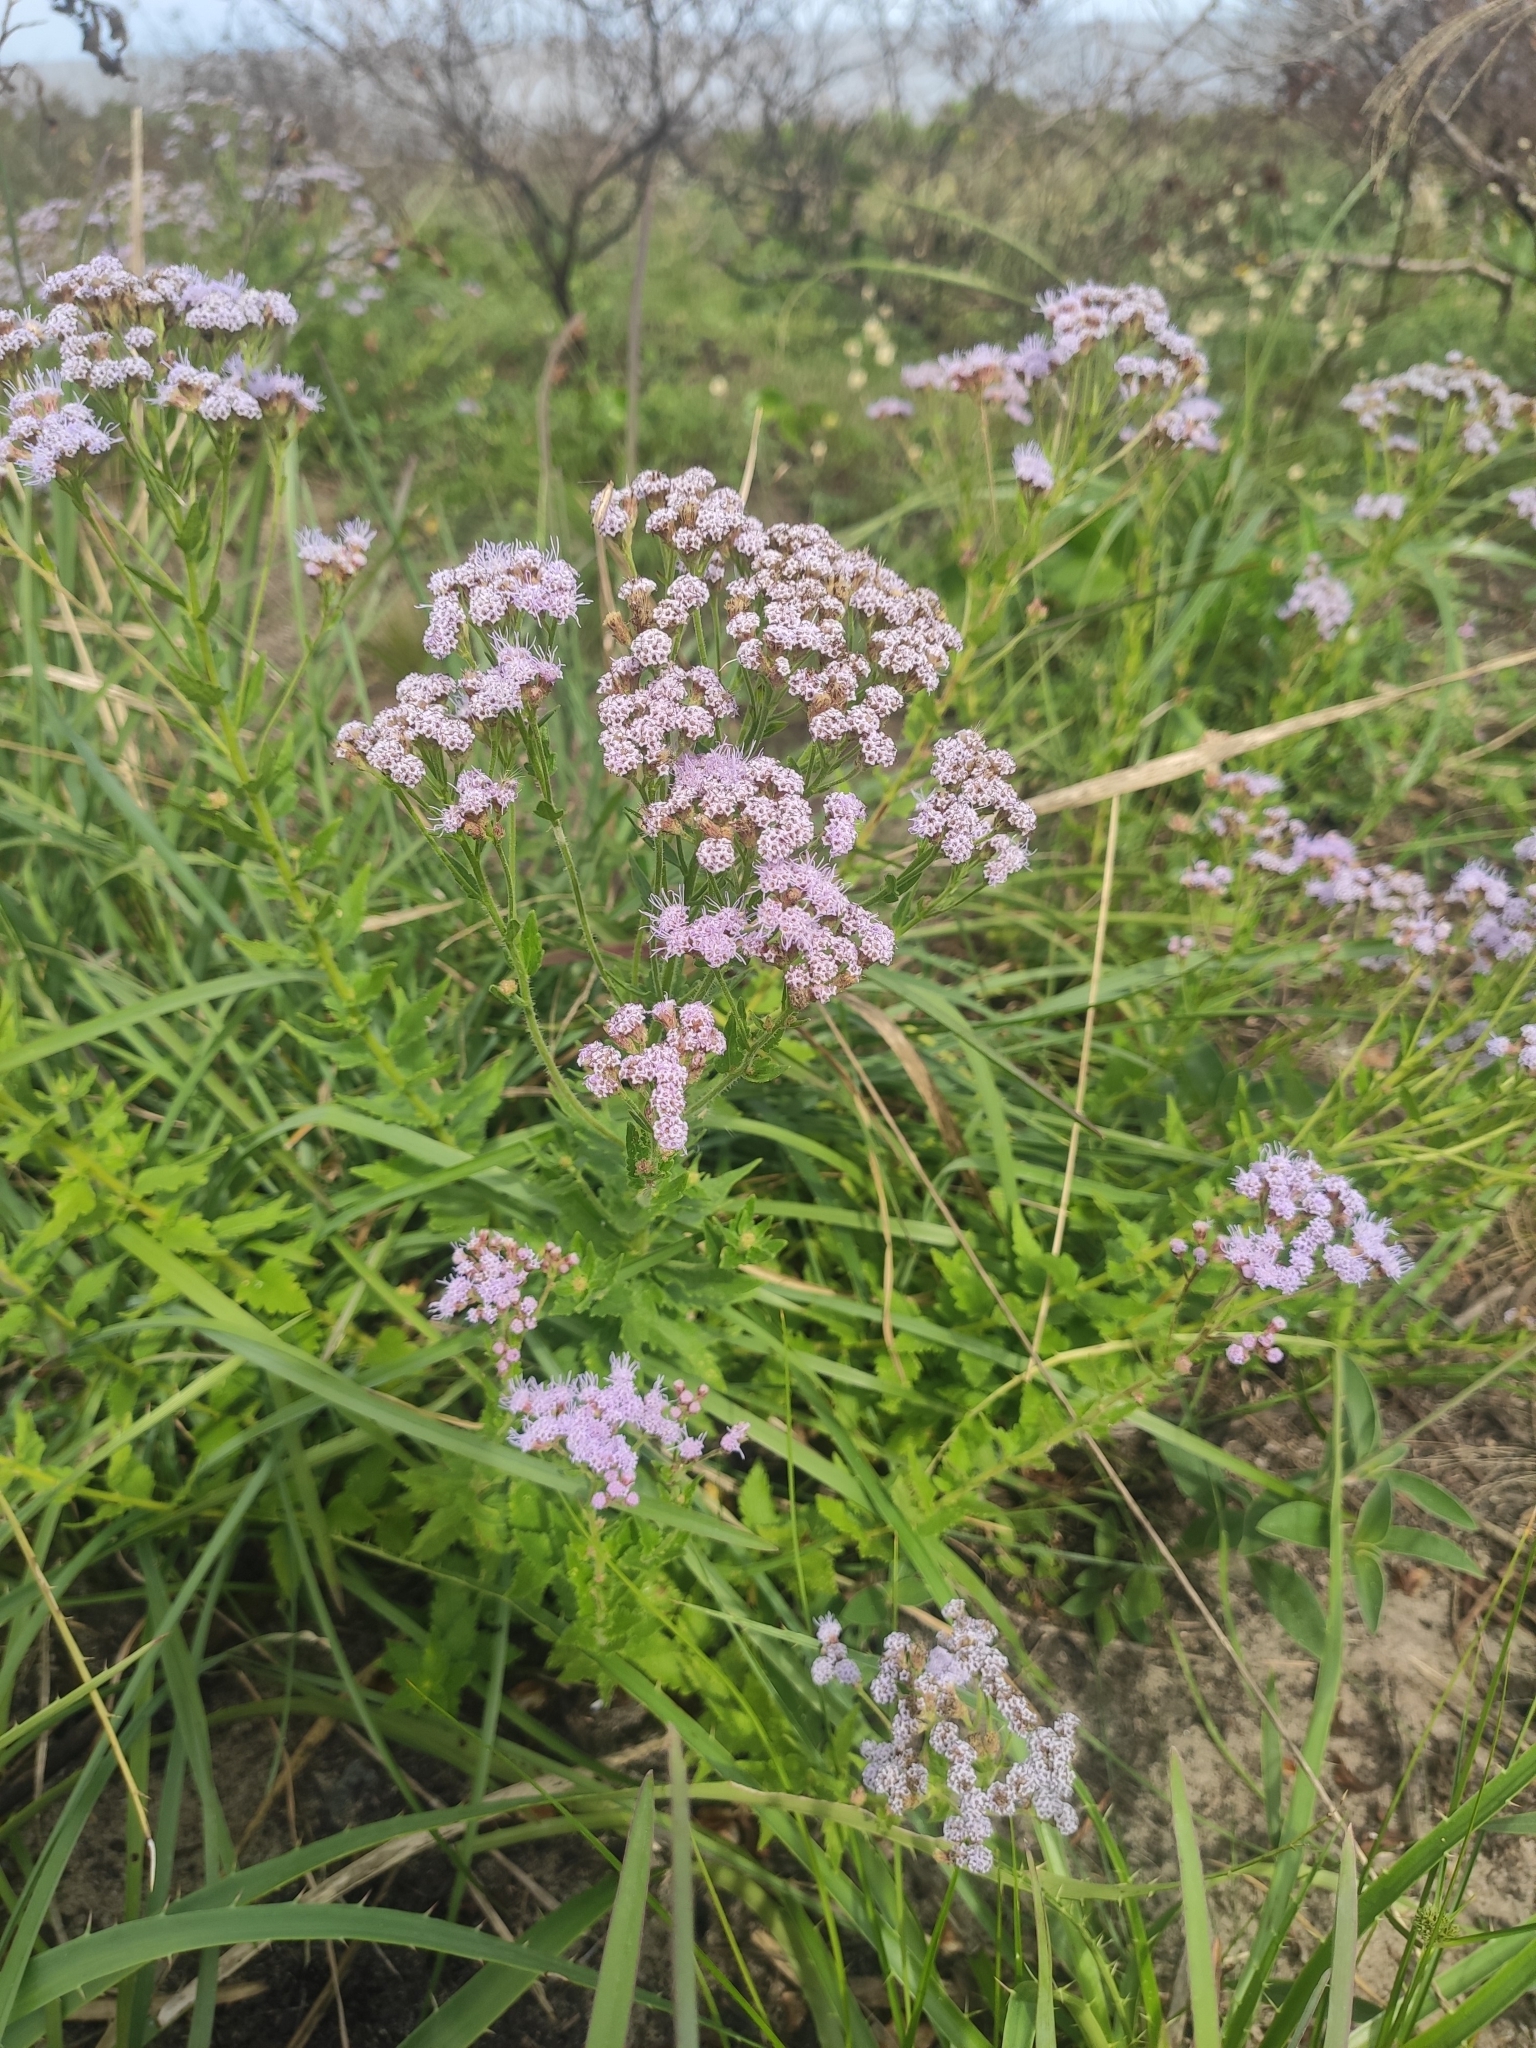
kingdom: Plantae
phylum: Tracheophyta
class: Magnoliopsida
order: Asterales
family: Asteraceae
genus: Chromolaena
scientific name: Chromolaena hirsuta
